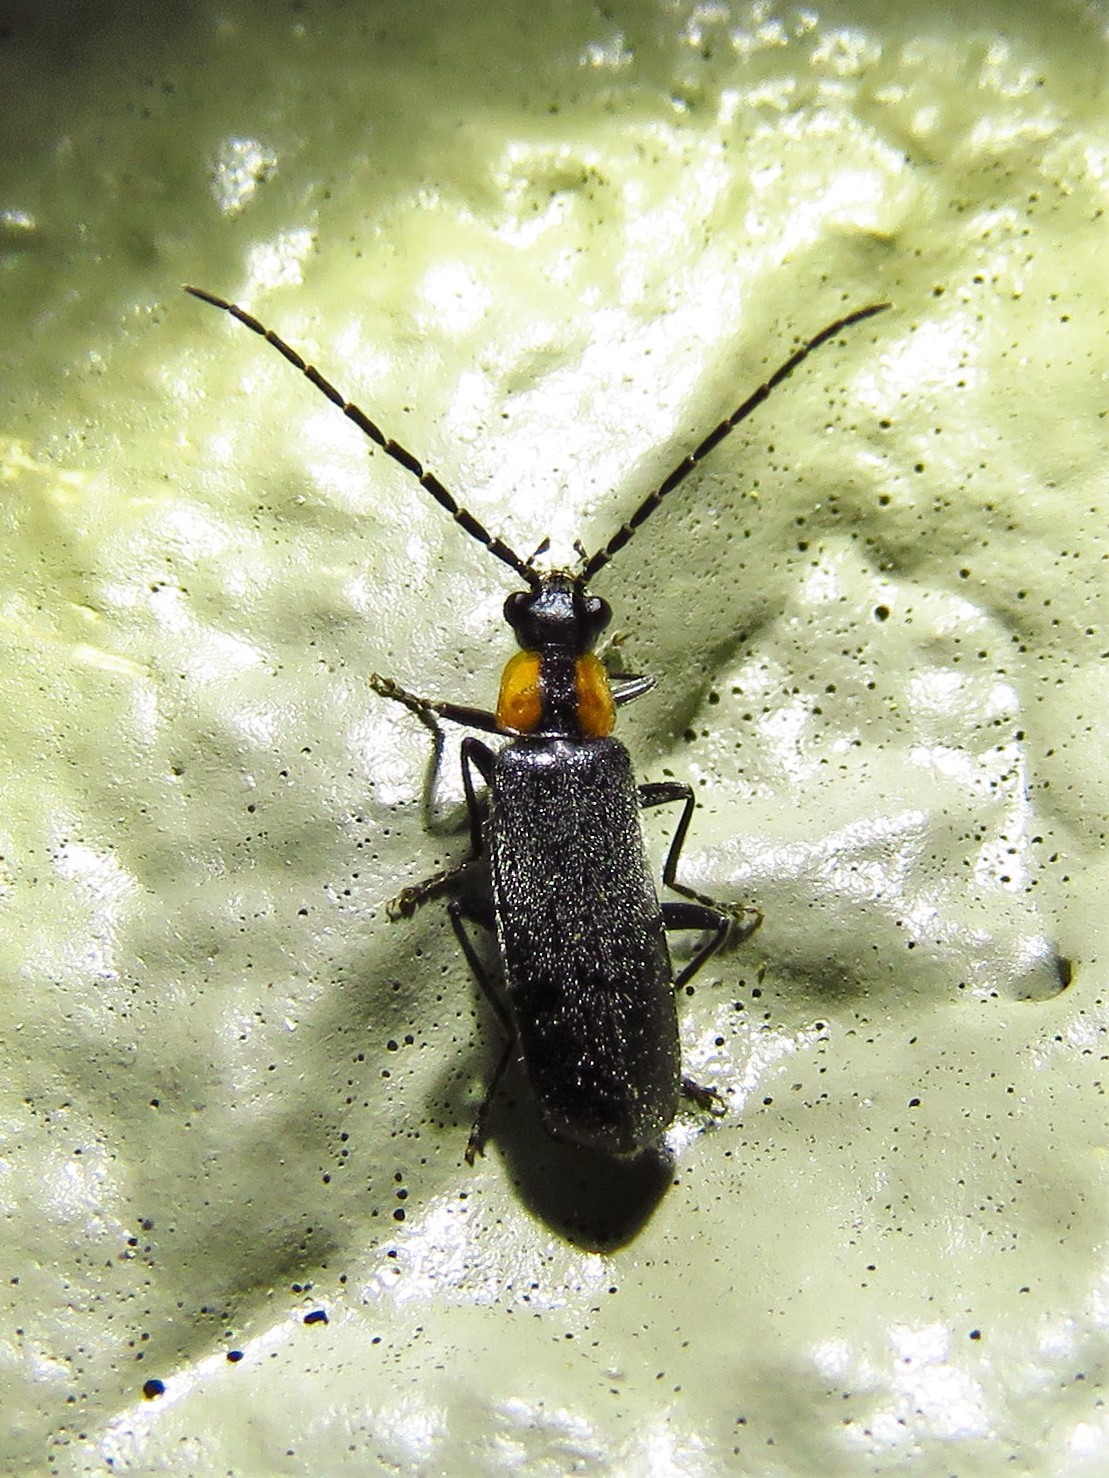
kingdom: Animalia
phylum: Arthropoda
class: Insecta
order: Coleoptera
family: Cantharidae
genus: Rhagonycha
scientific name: Rhagonycha lineola
